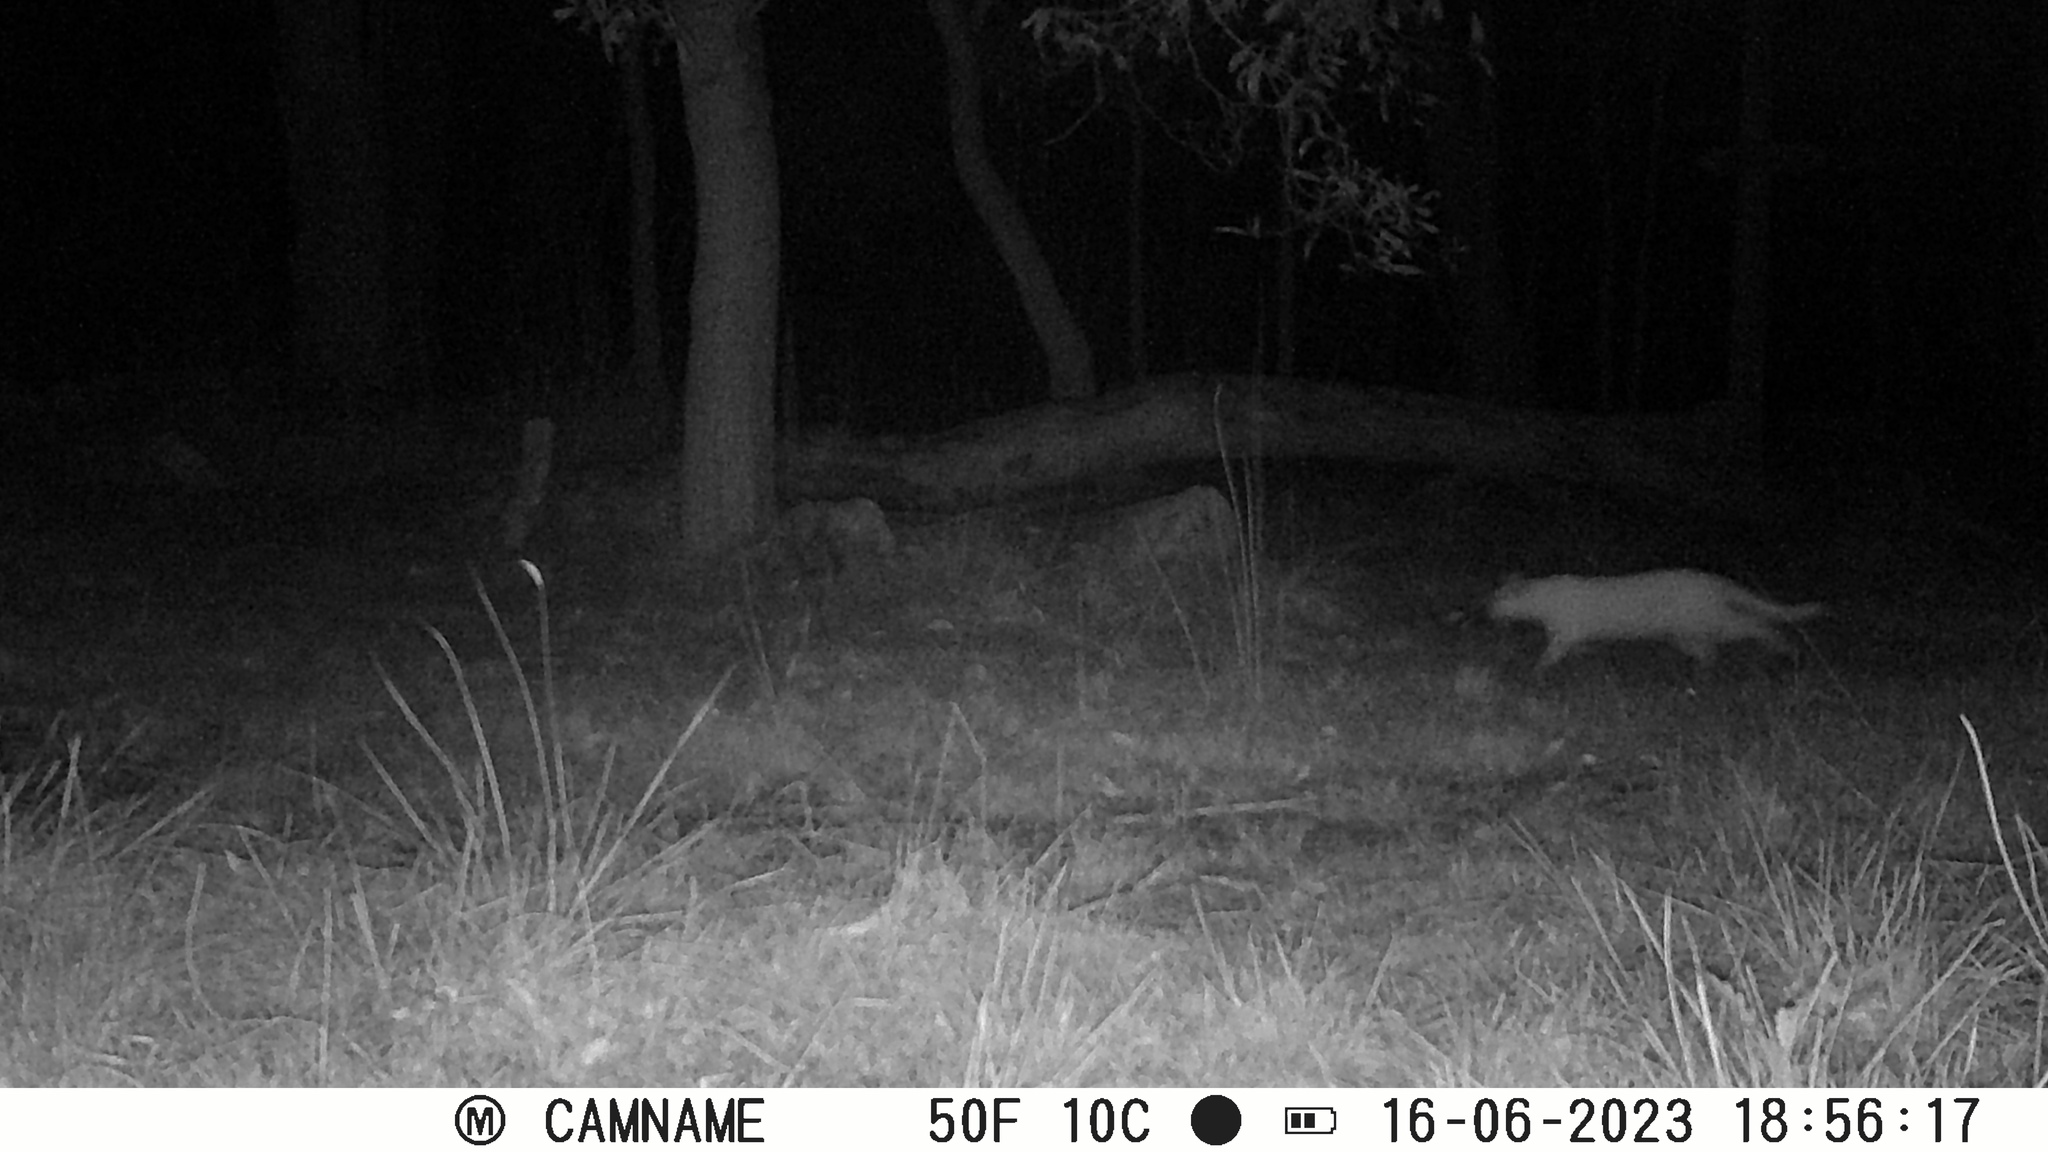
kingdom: Animalia
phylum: Chordata
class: Mammalia
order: Carnivora
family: Felidae
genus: Felis
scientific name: Felis catus
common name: Domestic cat
